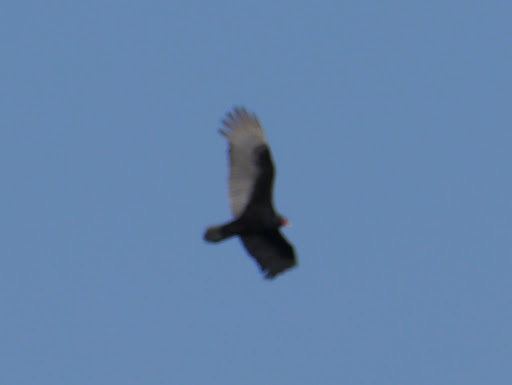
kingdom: Animalia
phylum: Chordata
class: Aves
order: Accipitriformes
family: Cathartidae
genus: Cathartes
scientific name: Cathartes aura
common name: Turkey vulture
